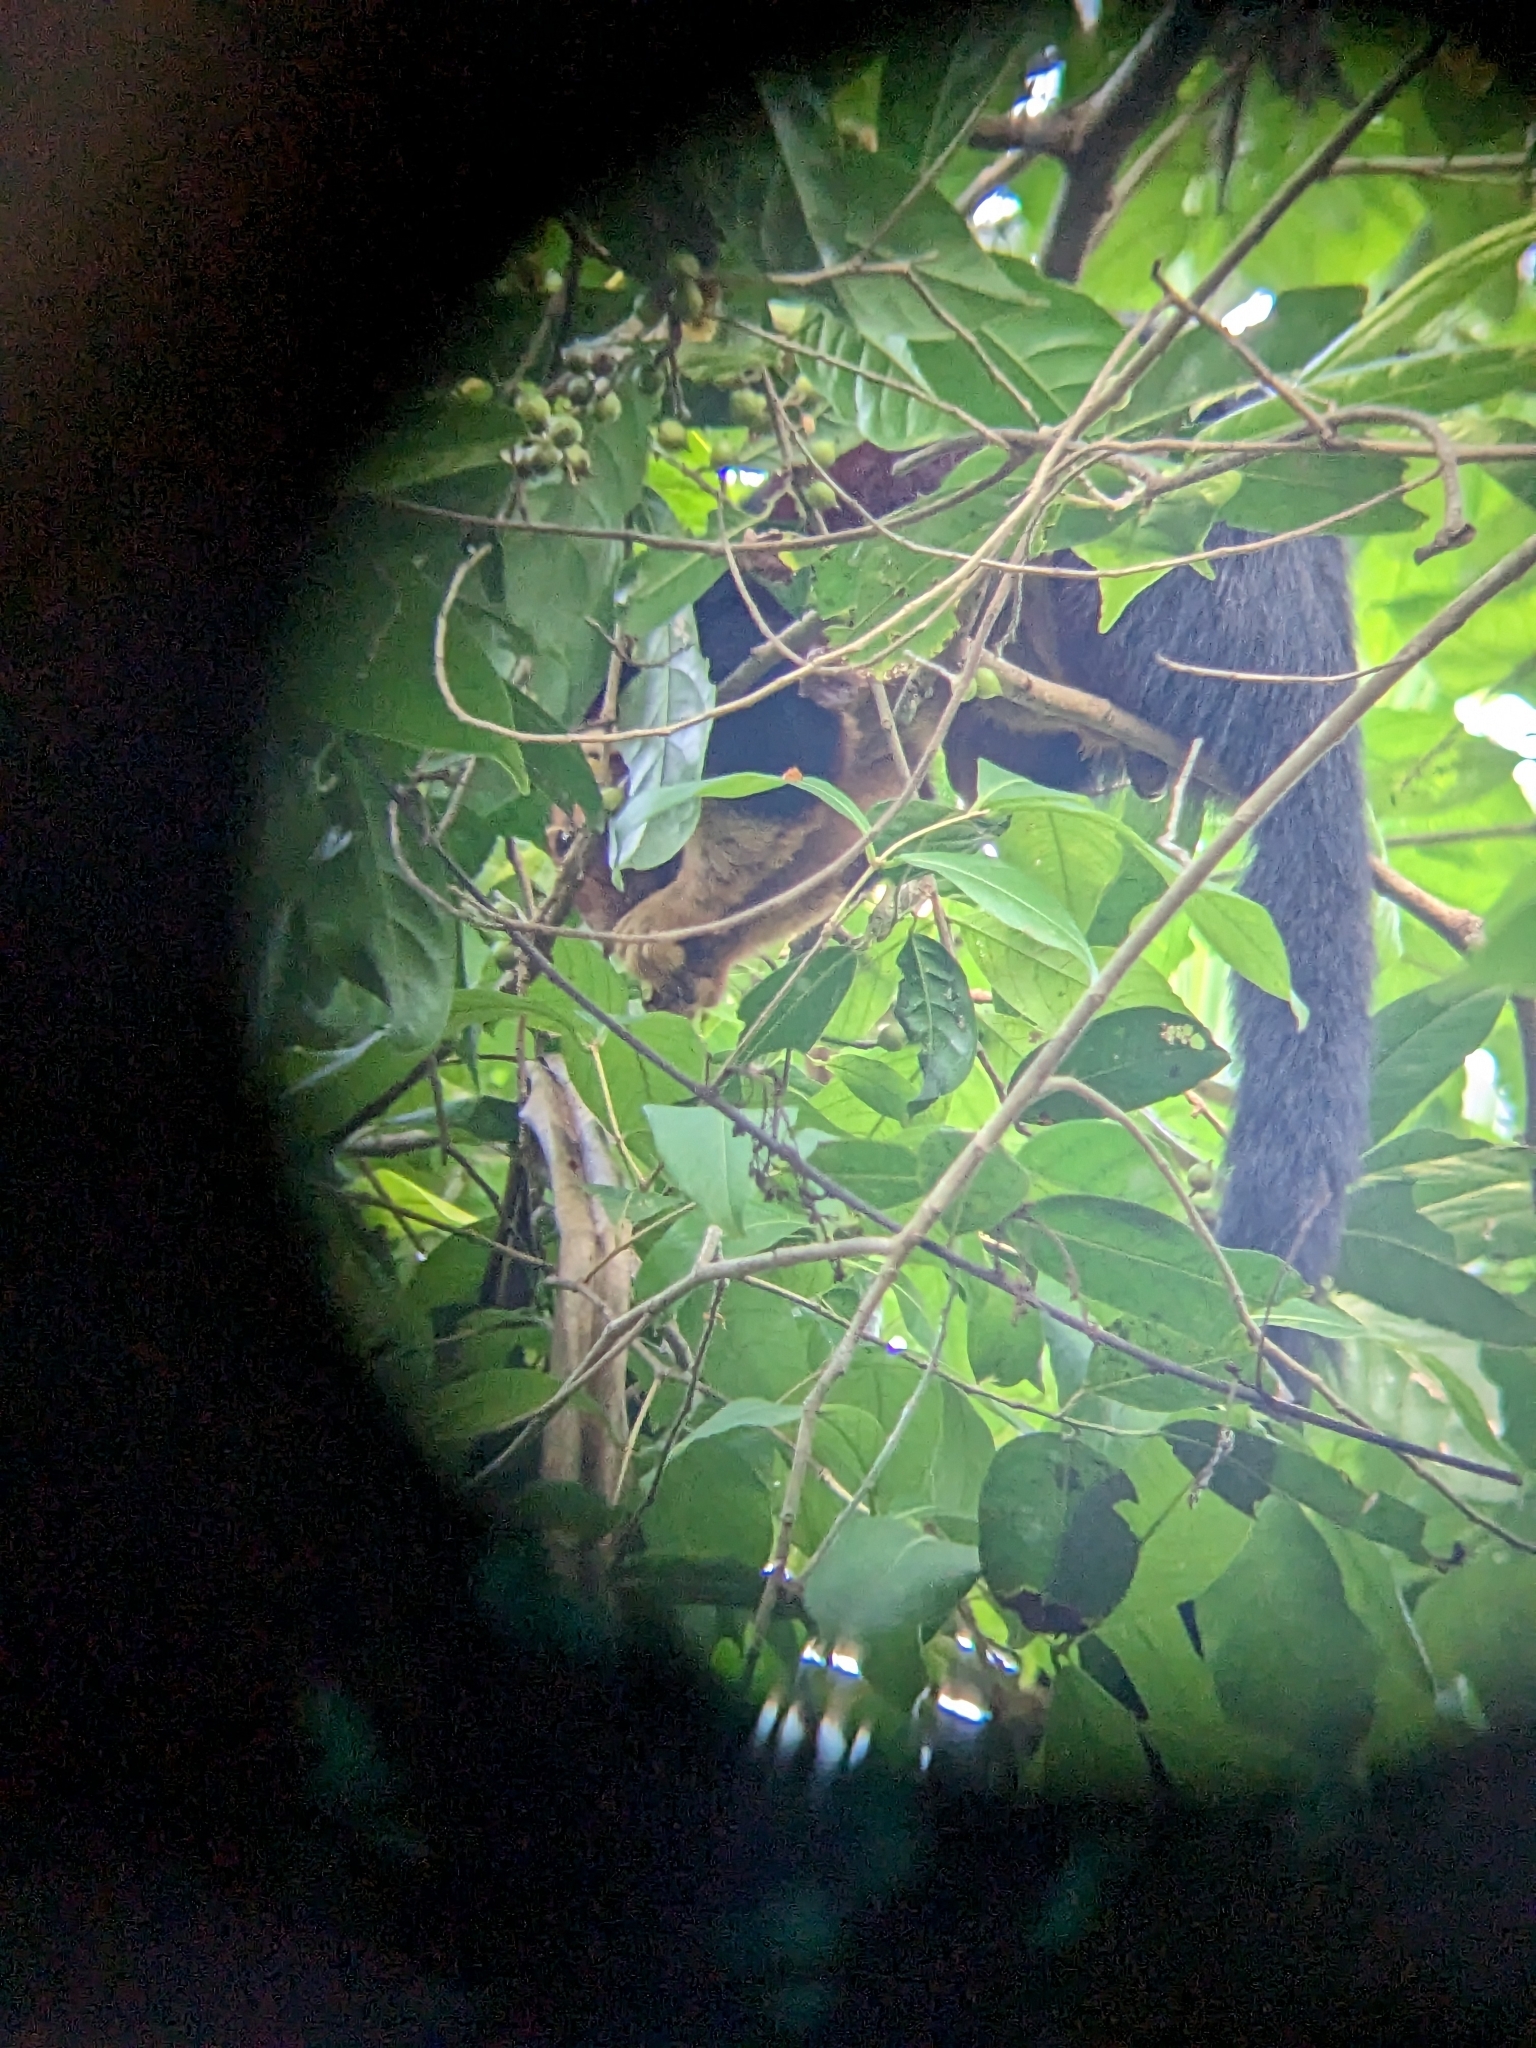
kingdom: Animalia
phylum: Chordata
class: Mammalia
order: Rodentia
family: Sciuridae
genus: Ratufa
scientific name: Ratufa indica
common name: Indian giant squirrel
